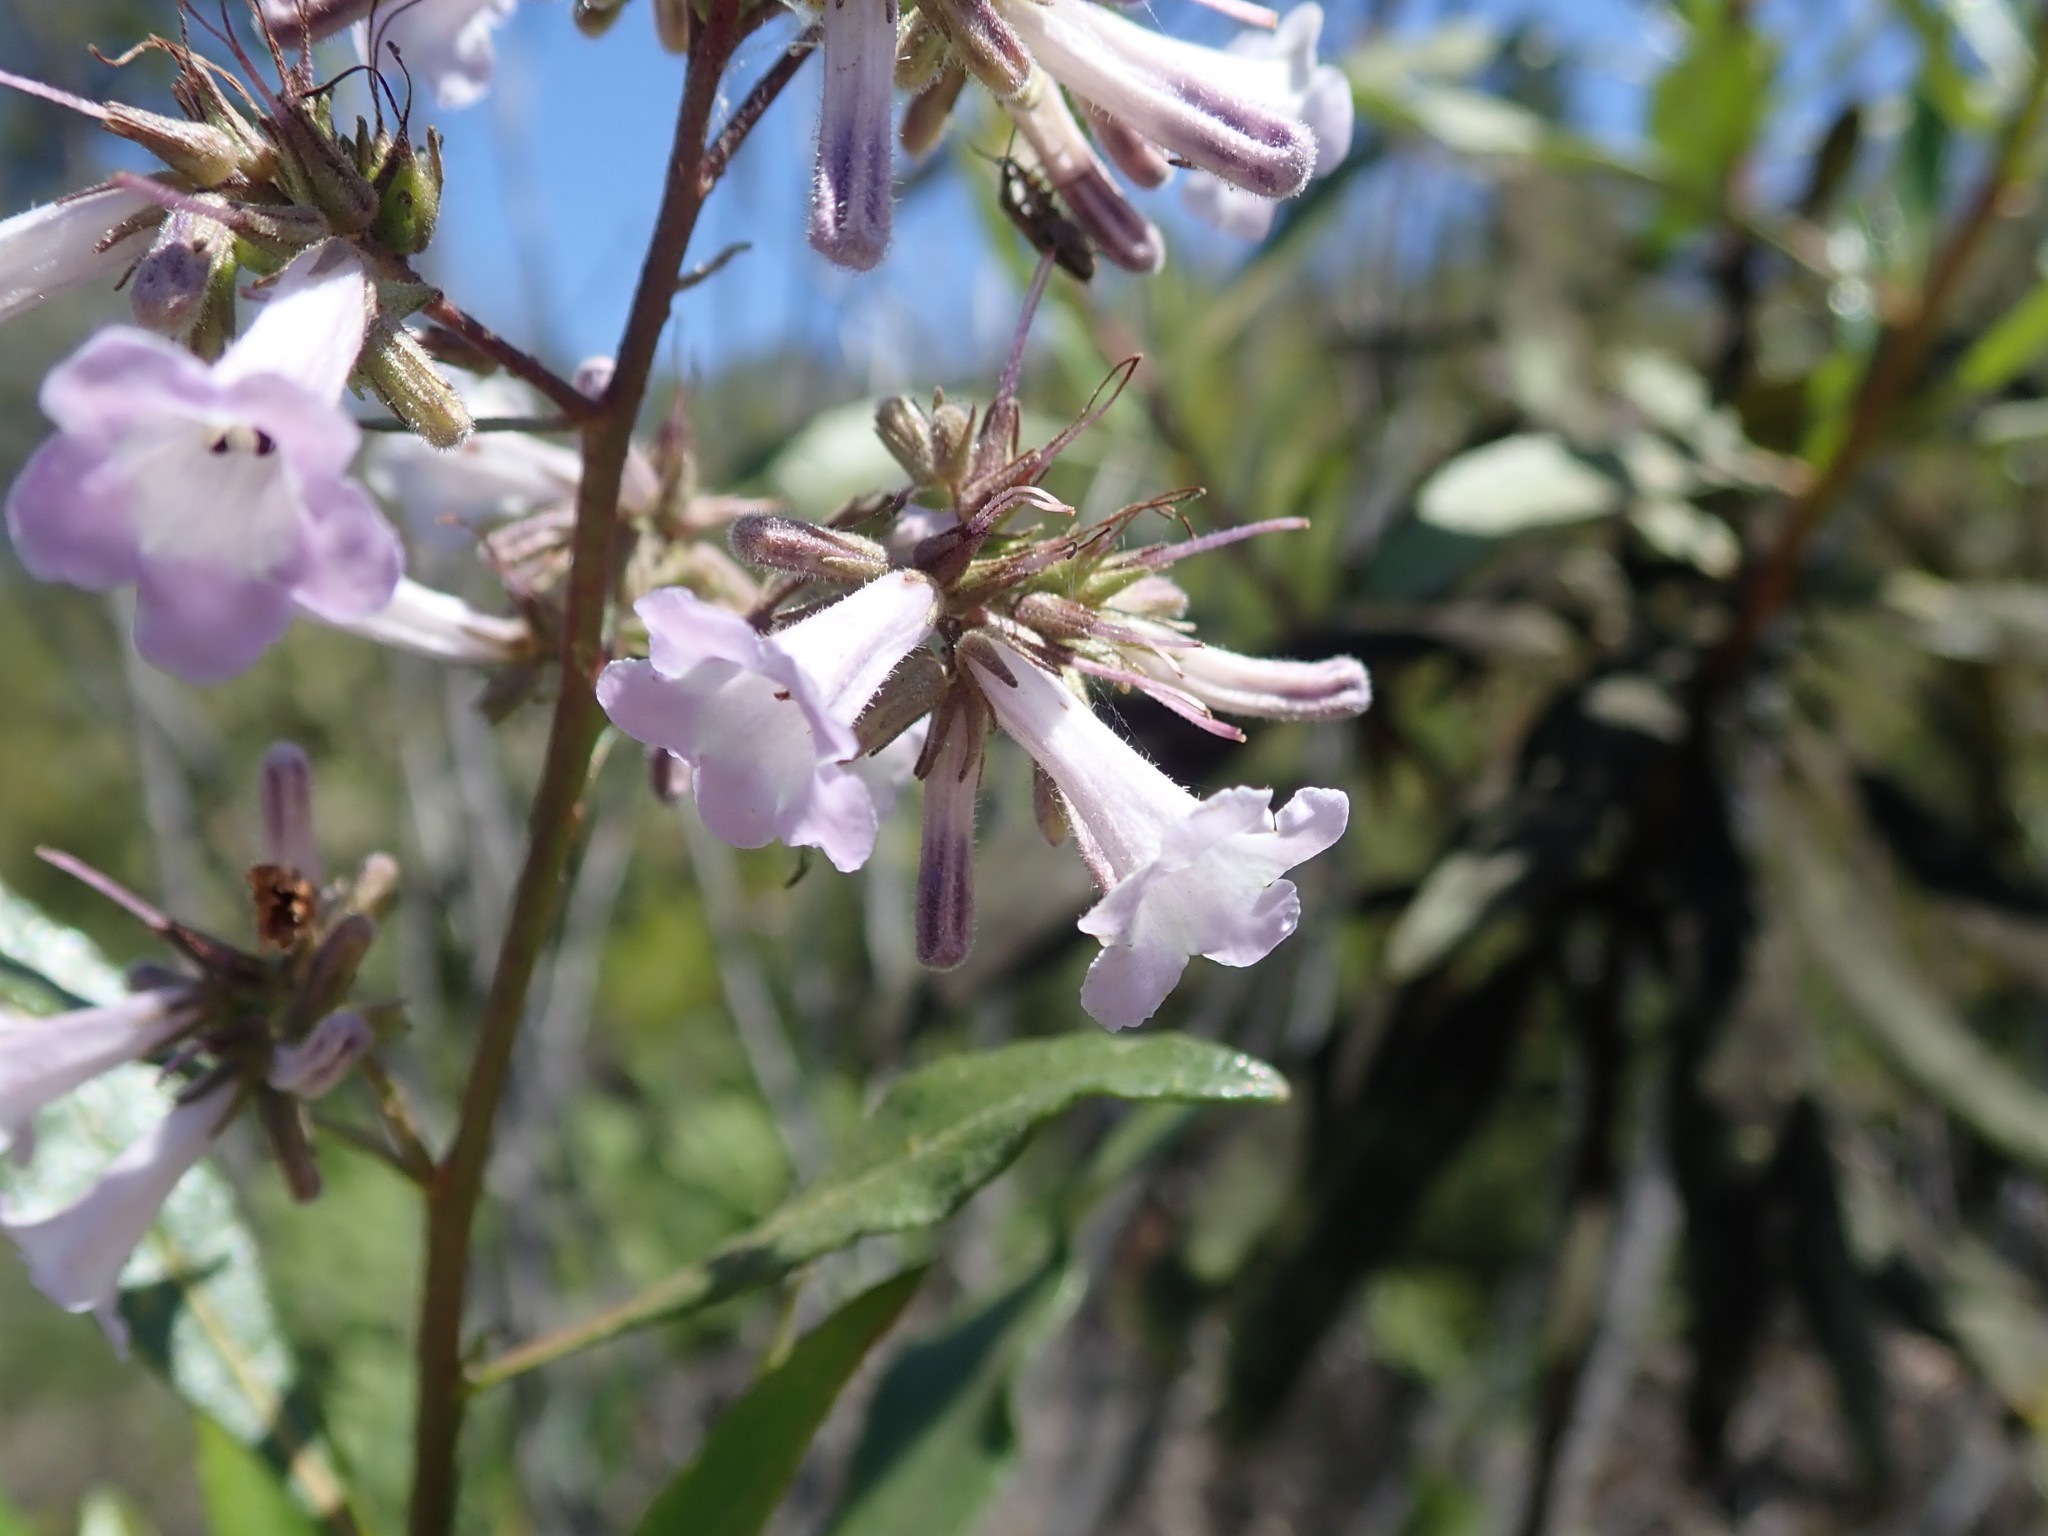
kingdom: Plantae
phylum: Tracheophyta
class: Magnoliopsida
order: Boraginales
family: Namaceae
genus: Eriodictyon
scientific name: Eriodictyon californicum
